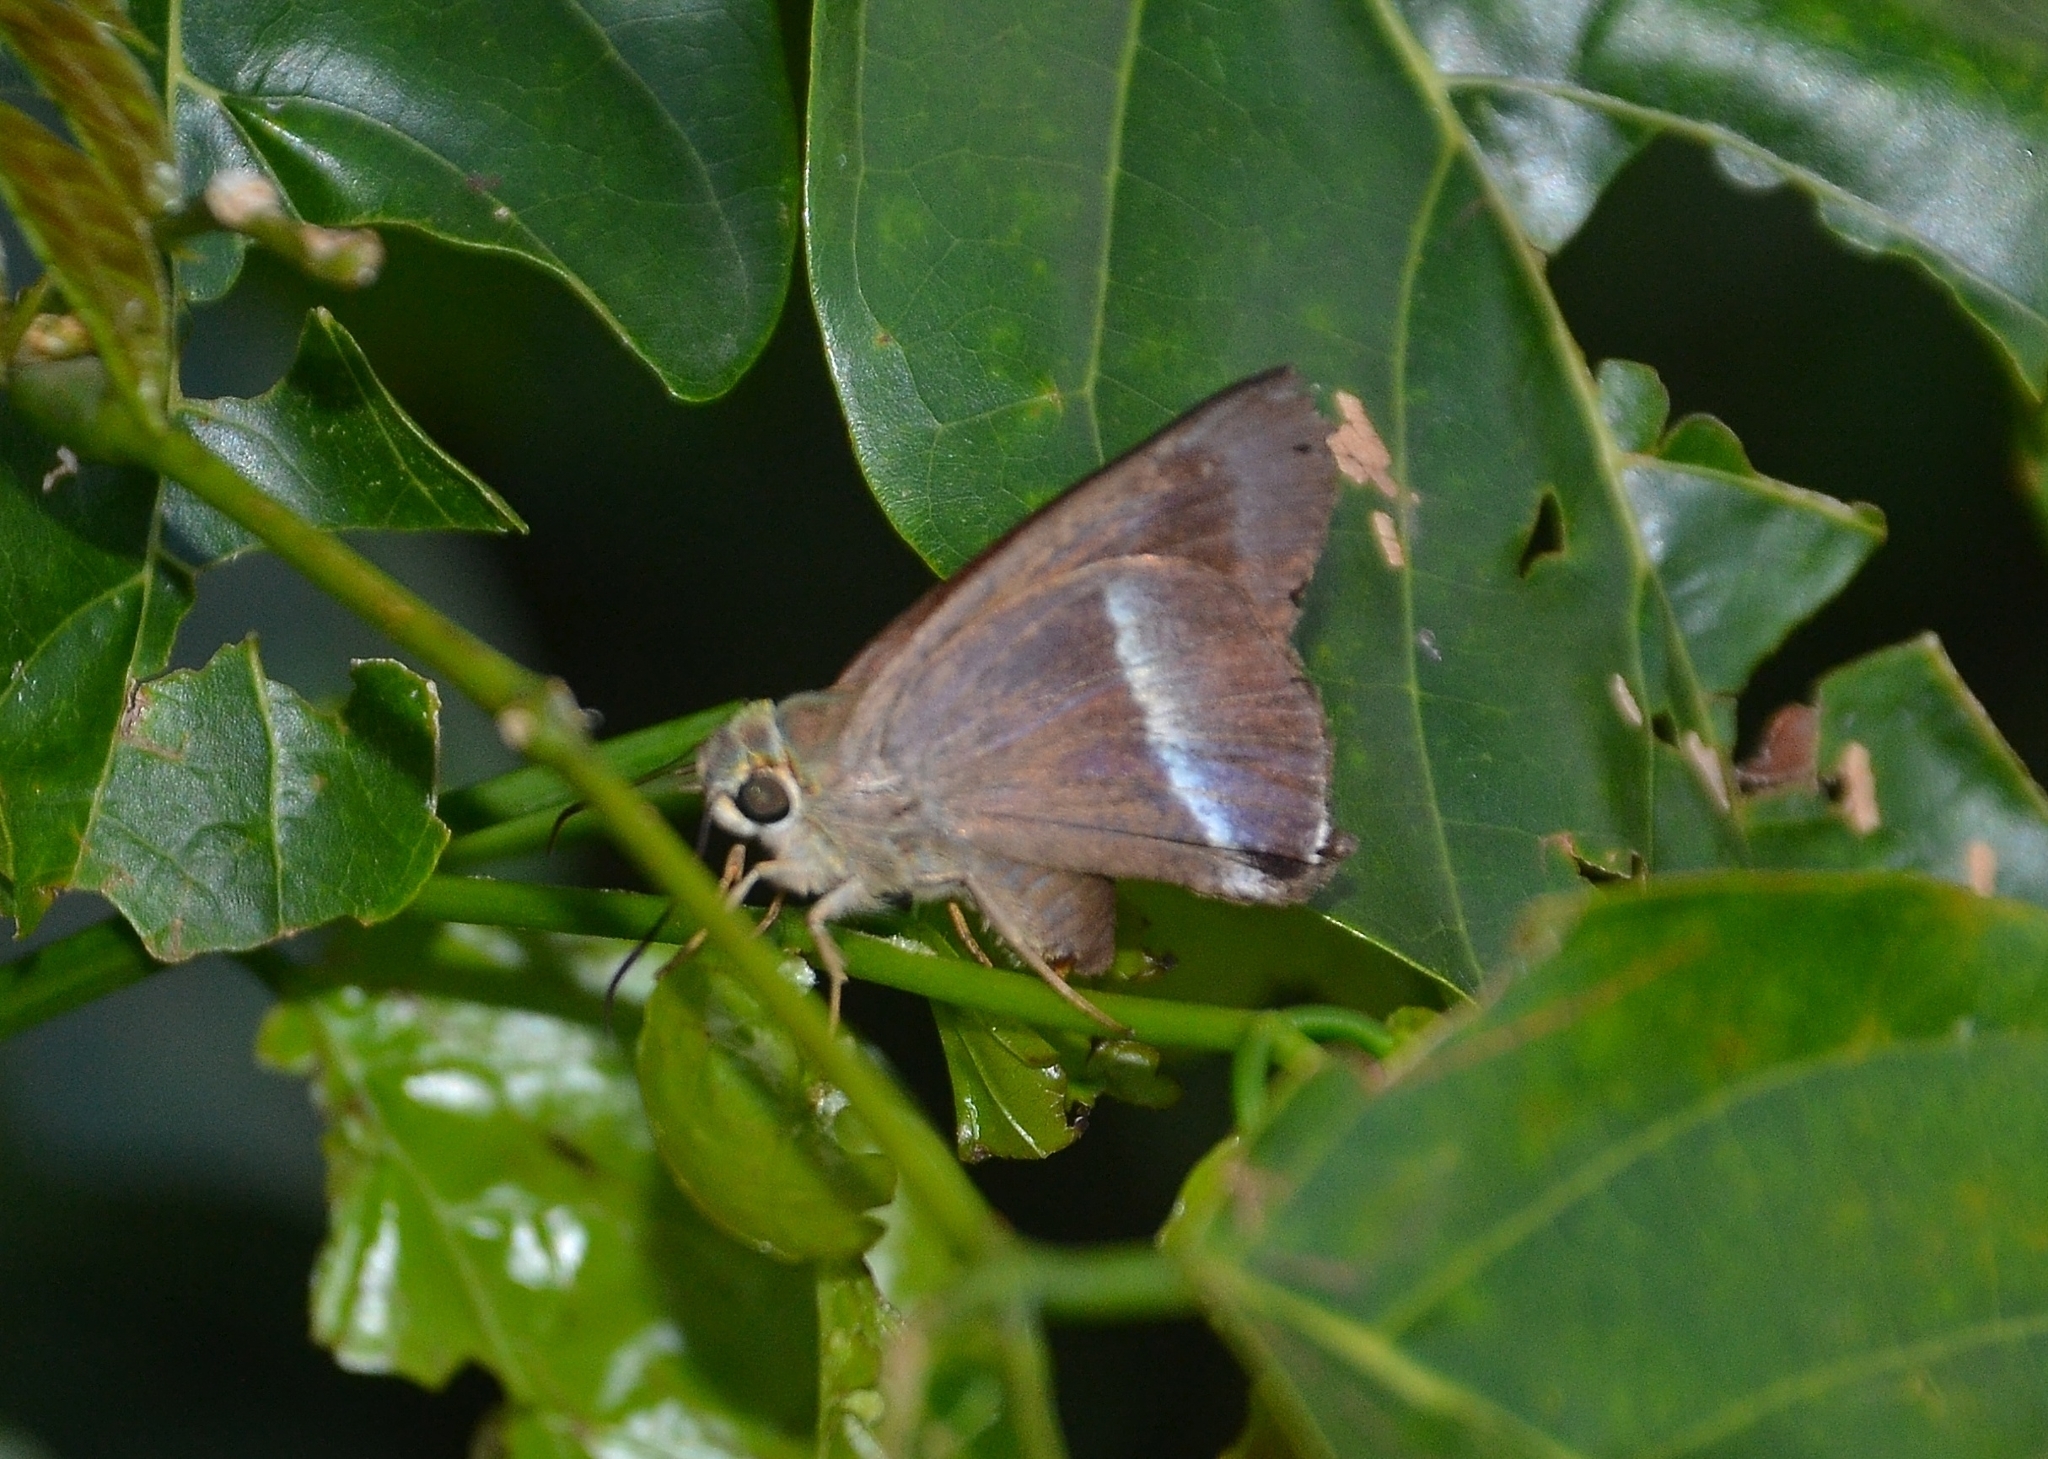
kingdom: Animalia
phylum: Arthropoda
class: Insecta
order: Lepidoptera
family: Hesperiidae
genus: Hasora
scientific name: Hasora chromus
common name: Common banded awl
